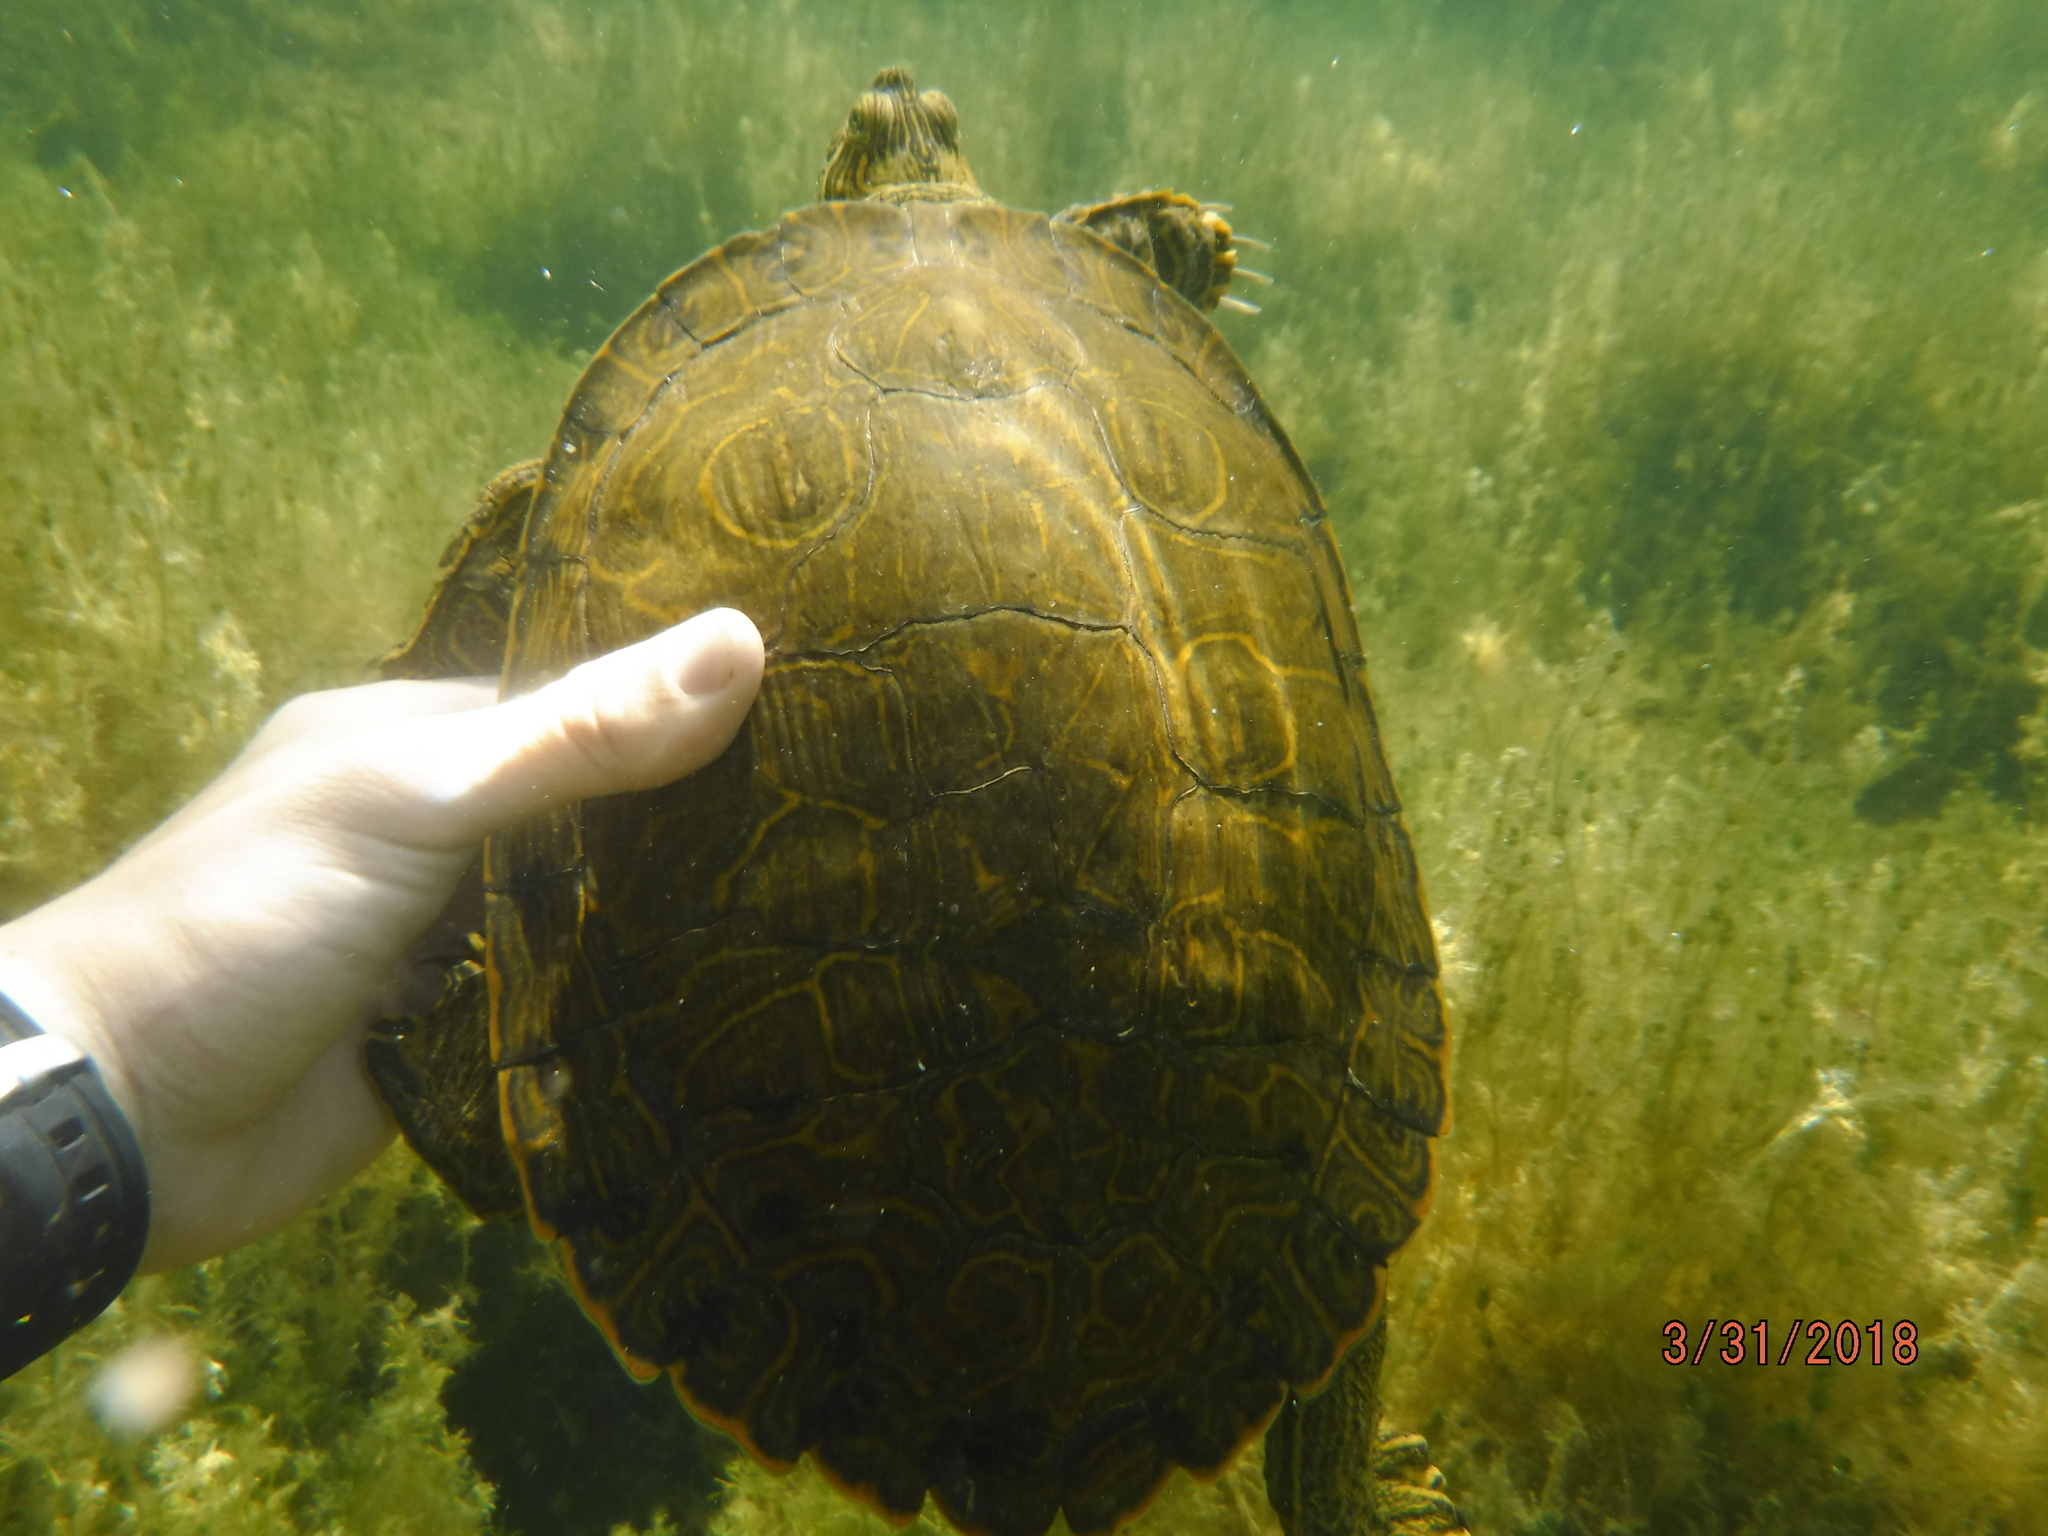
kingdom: Animalia
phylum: Chordata
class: Testudines
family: Emydidae
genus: Pseudemys
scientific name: Pseudemys texana
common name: Texas river cooter
